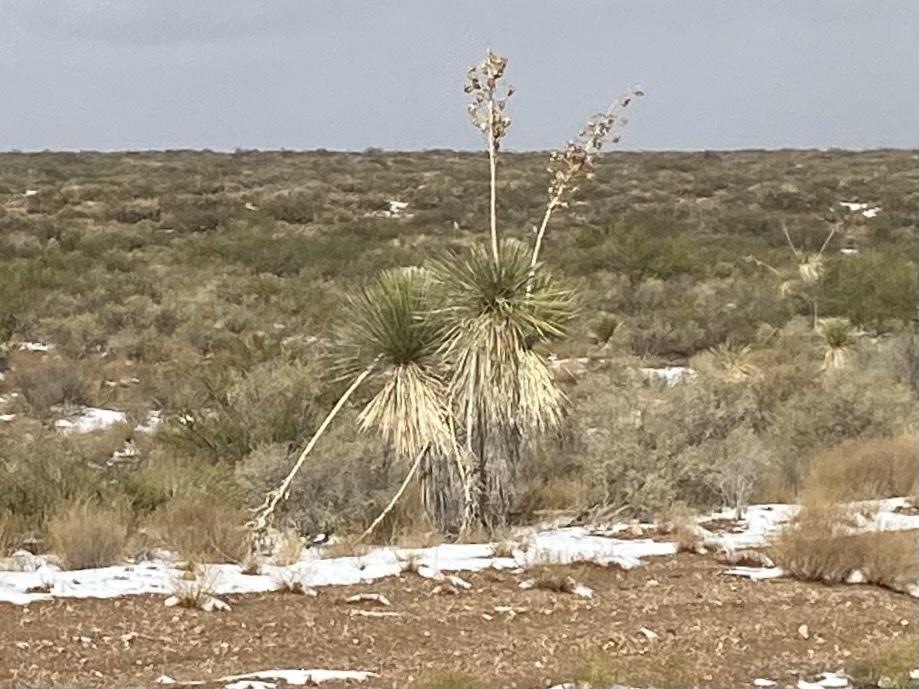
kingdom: Plantae
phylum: Tracheophyta
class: Liliopsida
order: Asparagales
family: Asparagaceae
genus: Yucca
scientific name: Yucca elata
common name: Palmella
